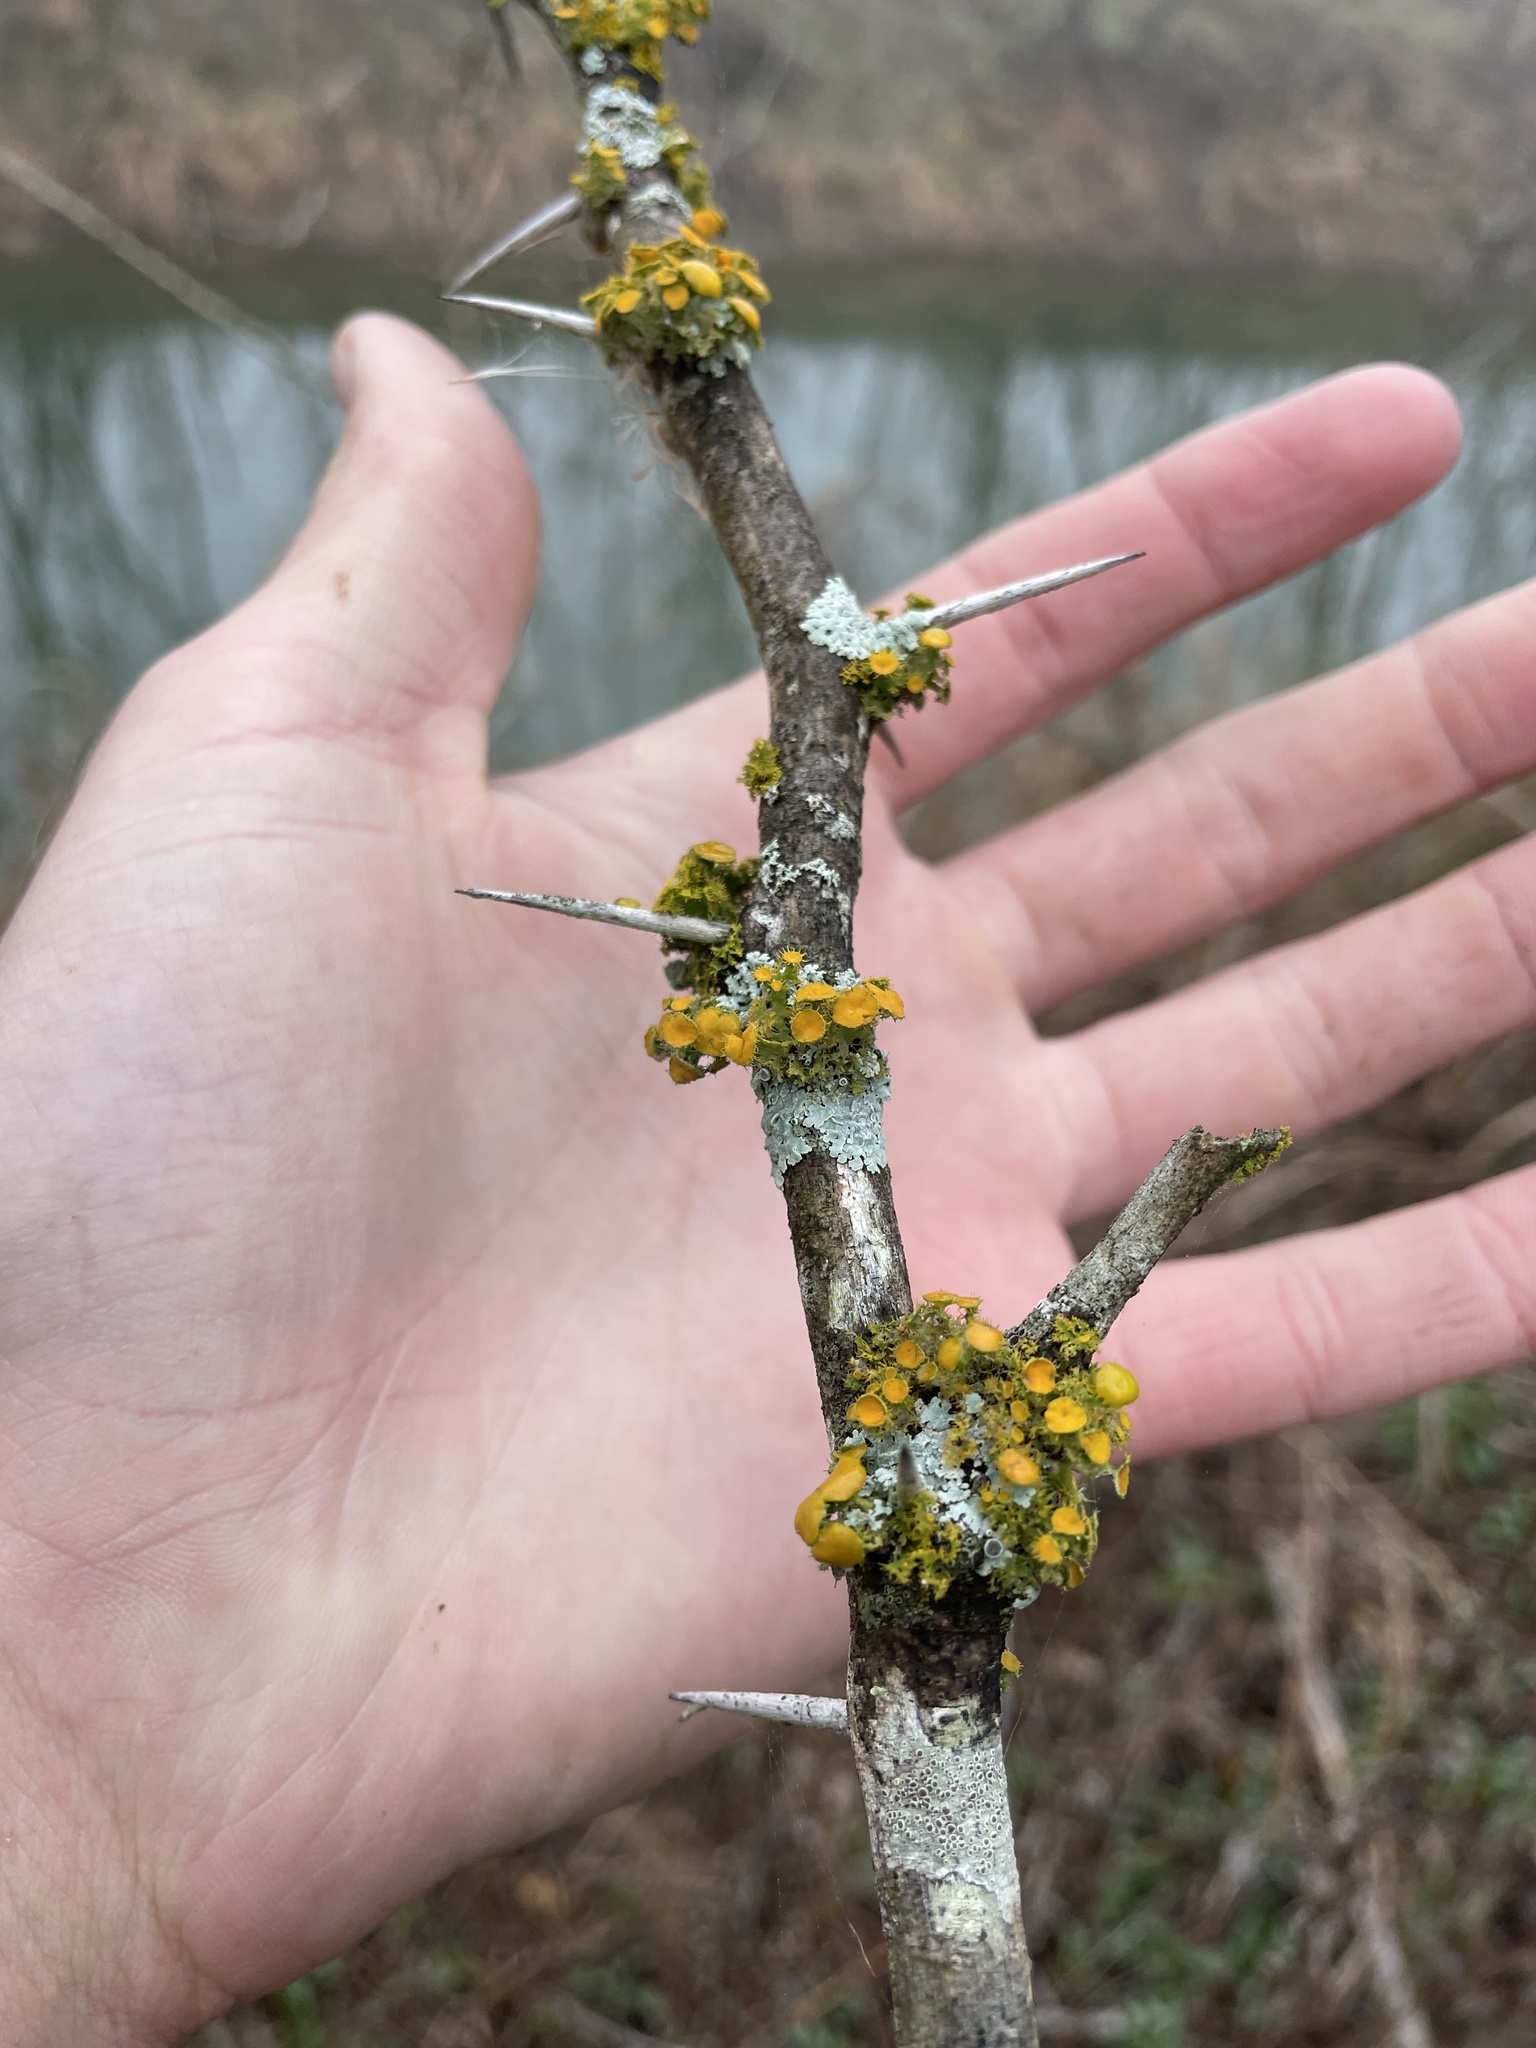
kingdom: Plantae
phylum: Tracheophyta
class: Magnoliopsida
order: Fabales
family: Fabaceae
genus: Prosopis
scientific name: Prosopis glandulosa
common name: Honey mesquite
